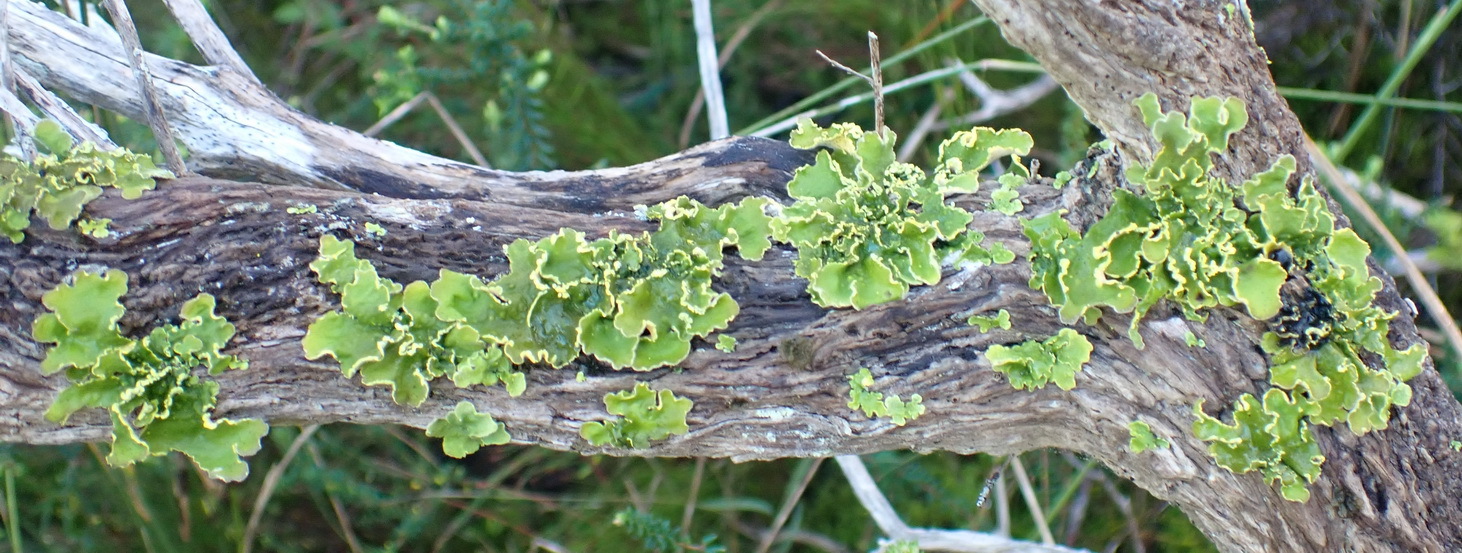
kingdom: Fungi
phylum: Ascomycota
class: Lecanoromycetes
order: Peltigerales
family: Lobariaceae
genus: Pseudocyphellaria
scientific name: Pseudocyphellaria aurata
